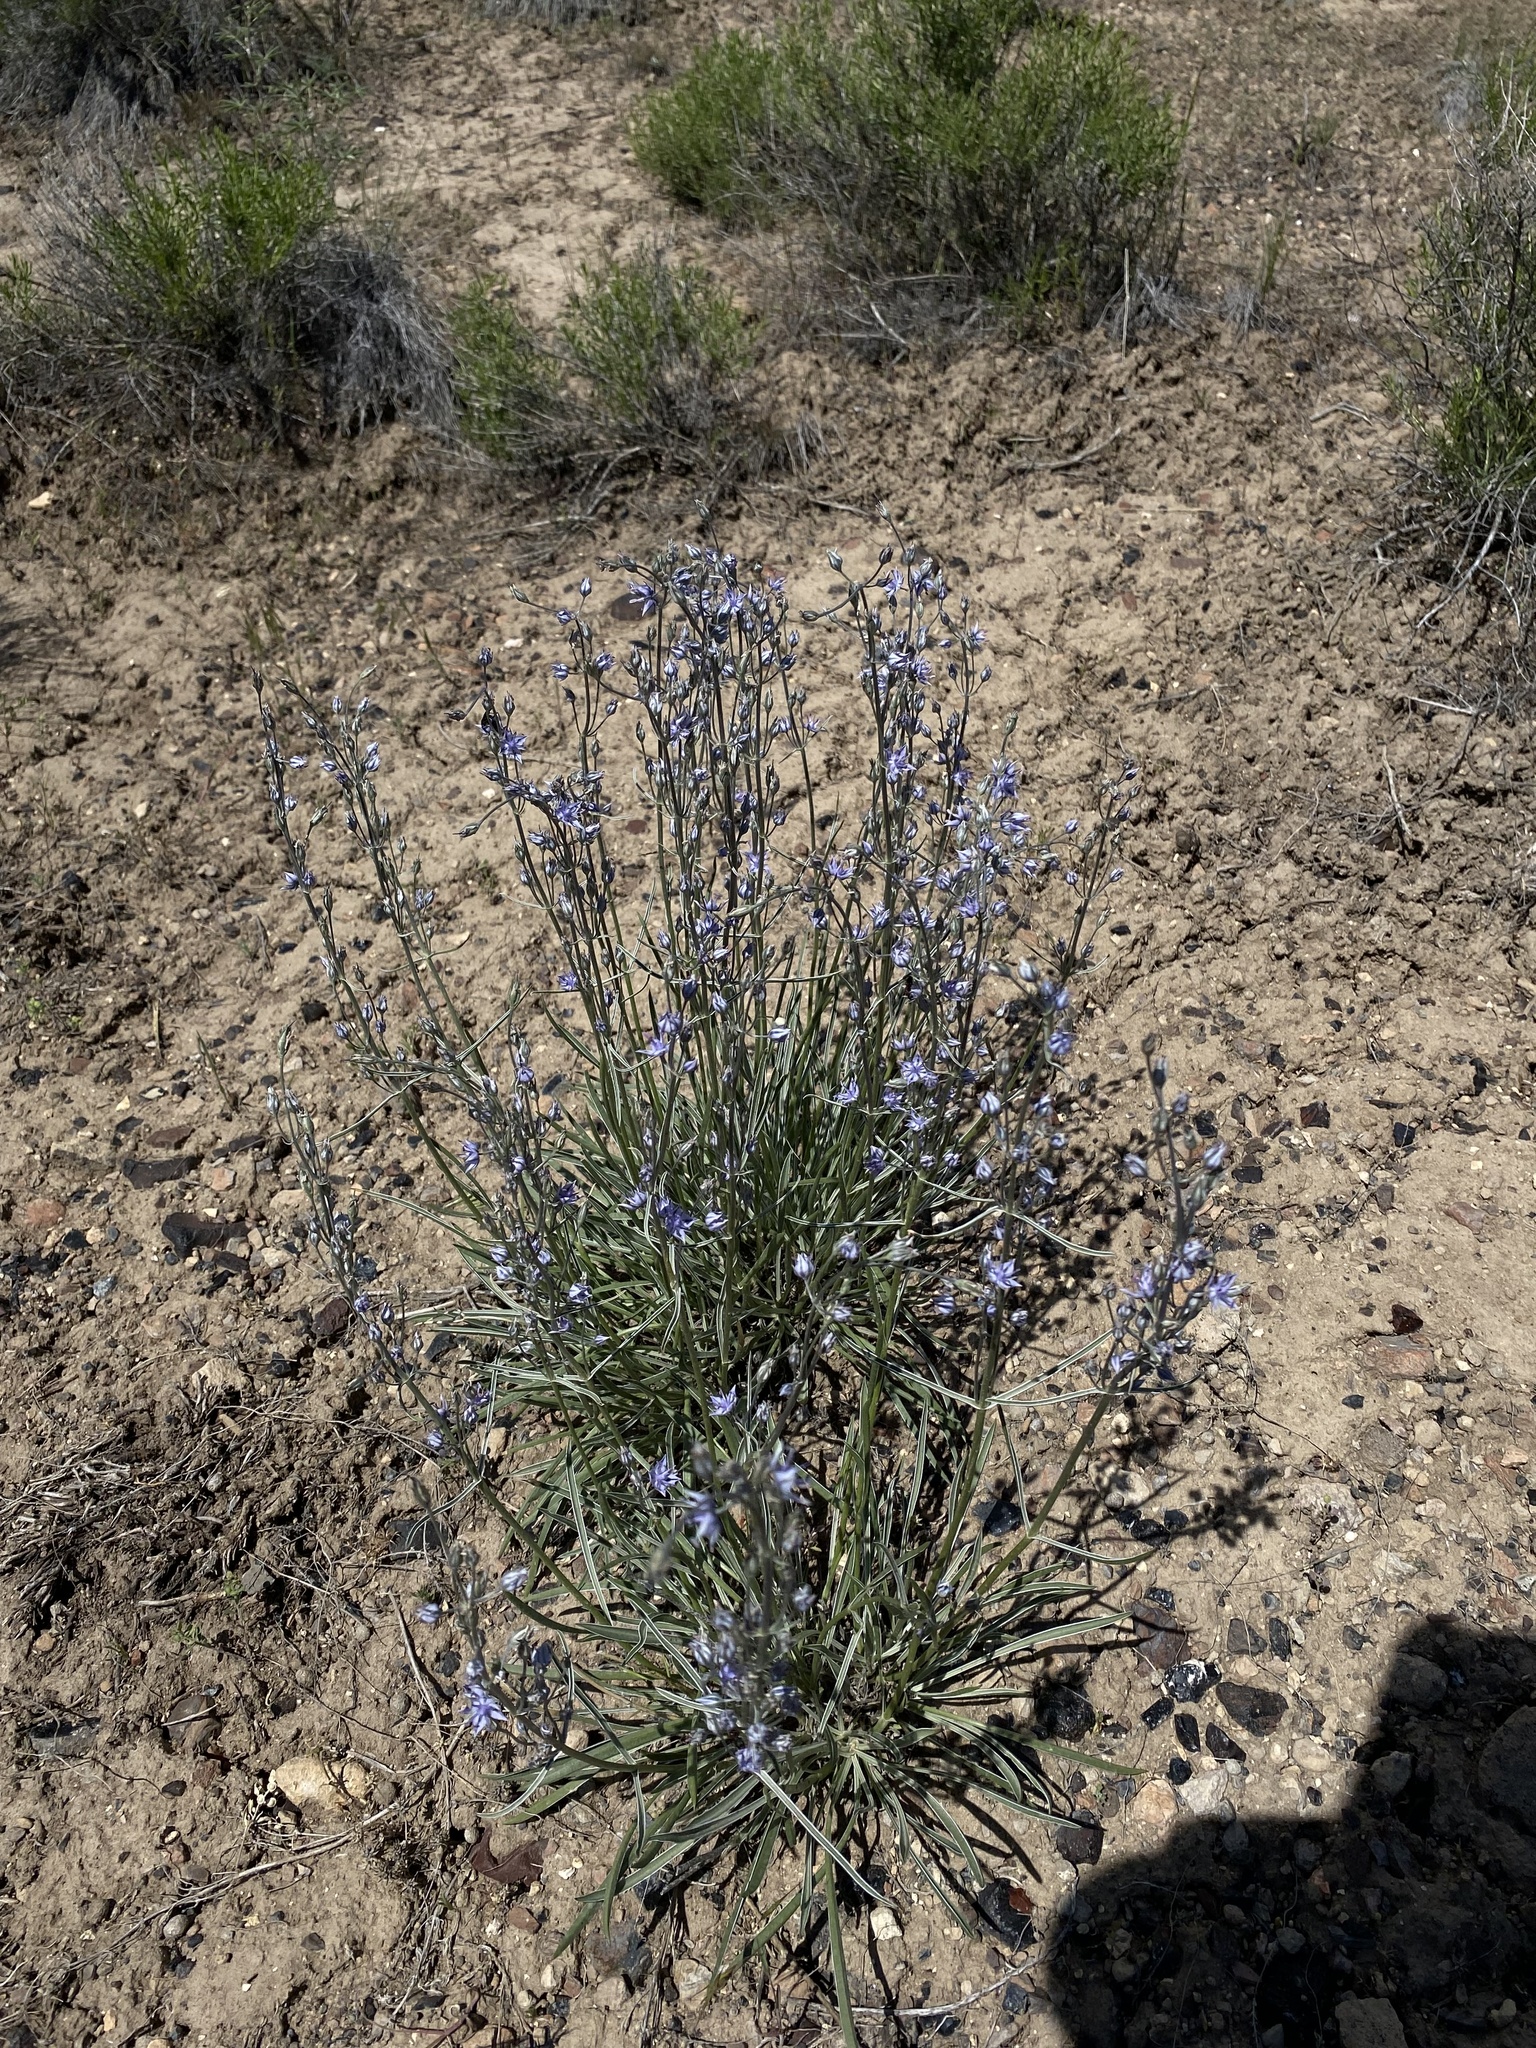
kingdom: Plantae
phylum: Tracheophyta
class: Magnoliopsida
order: Gentianales
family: Gentianaceae
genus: Frasera
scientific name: Frasera albicaulis
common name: Cusick's frasera
